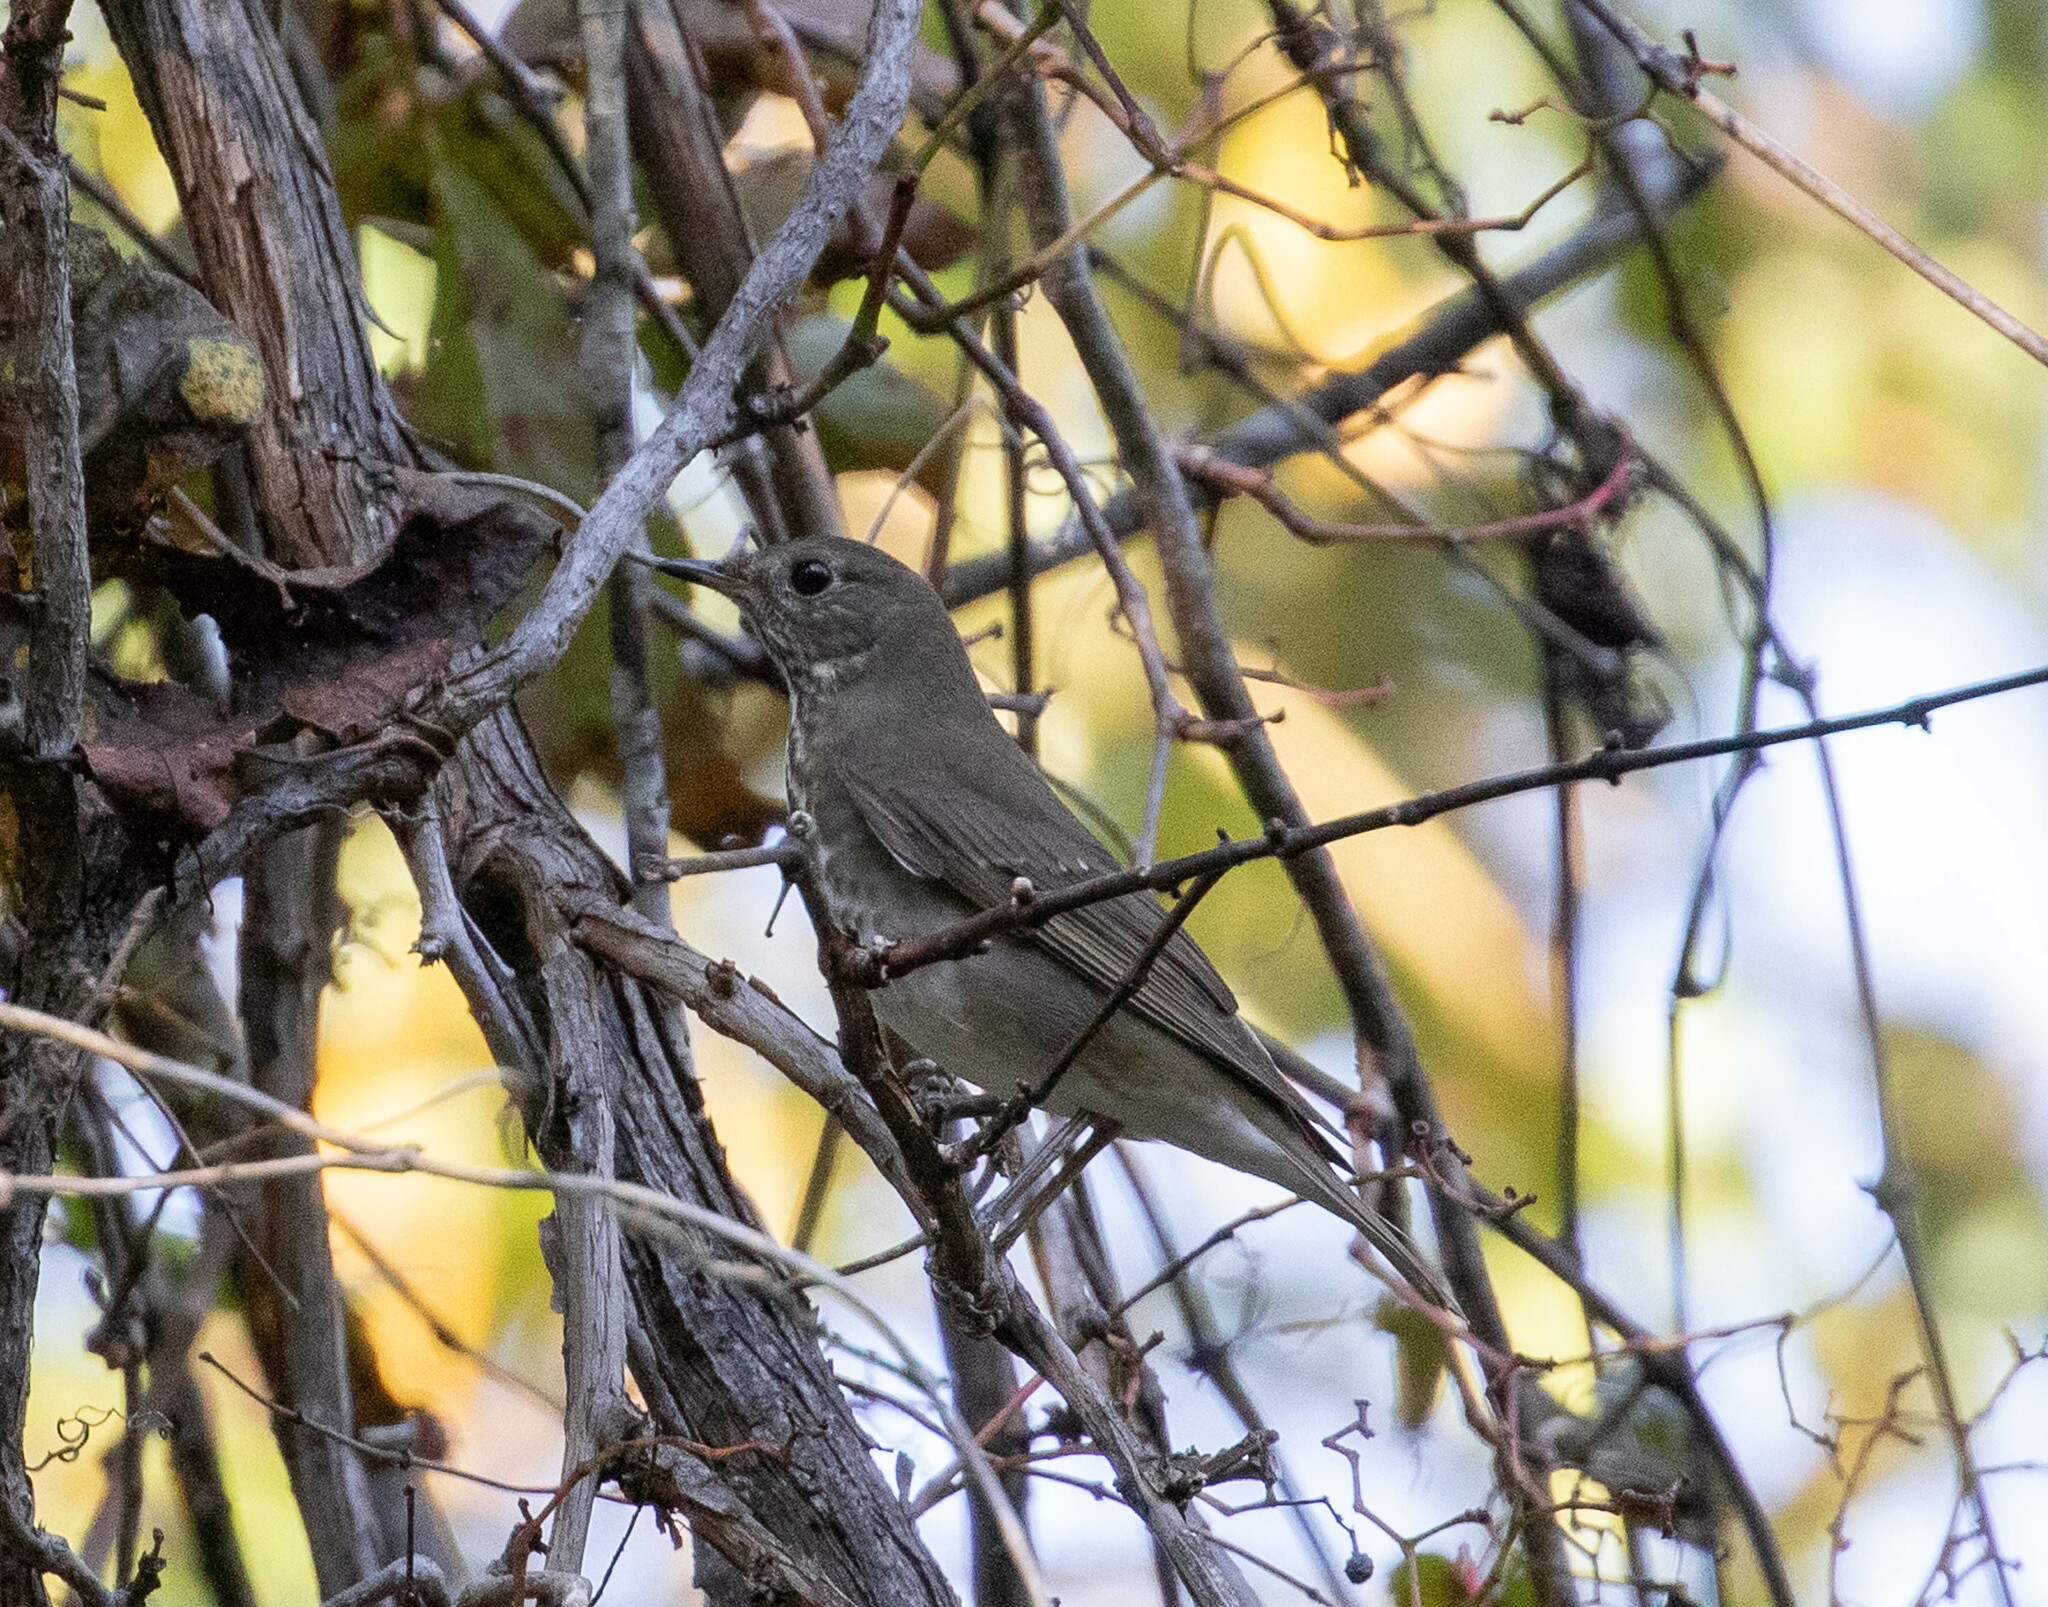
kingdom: Animalia
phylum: Chordata
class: Aves
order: Passeriformes
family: Turdidae
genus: Catharus
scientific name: Catharus minimus
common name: Grey-cheeked thrush
